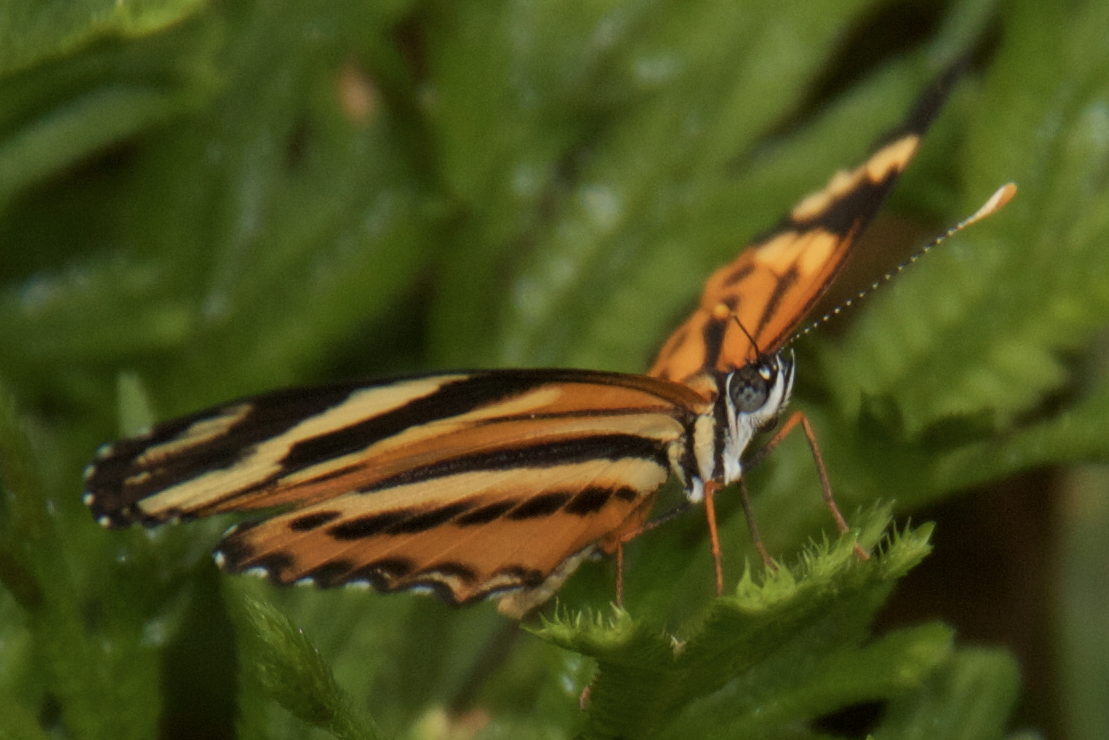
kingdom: Animalia
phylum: Arthropoda
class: Insecta
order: Lepidoptera
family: Nymphalidae
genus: Eresia
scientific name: Eresia eunice
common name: Tiger crescent
